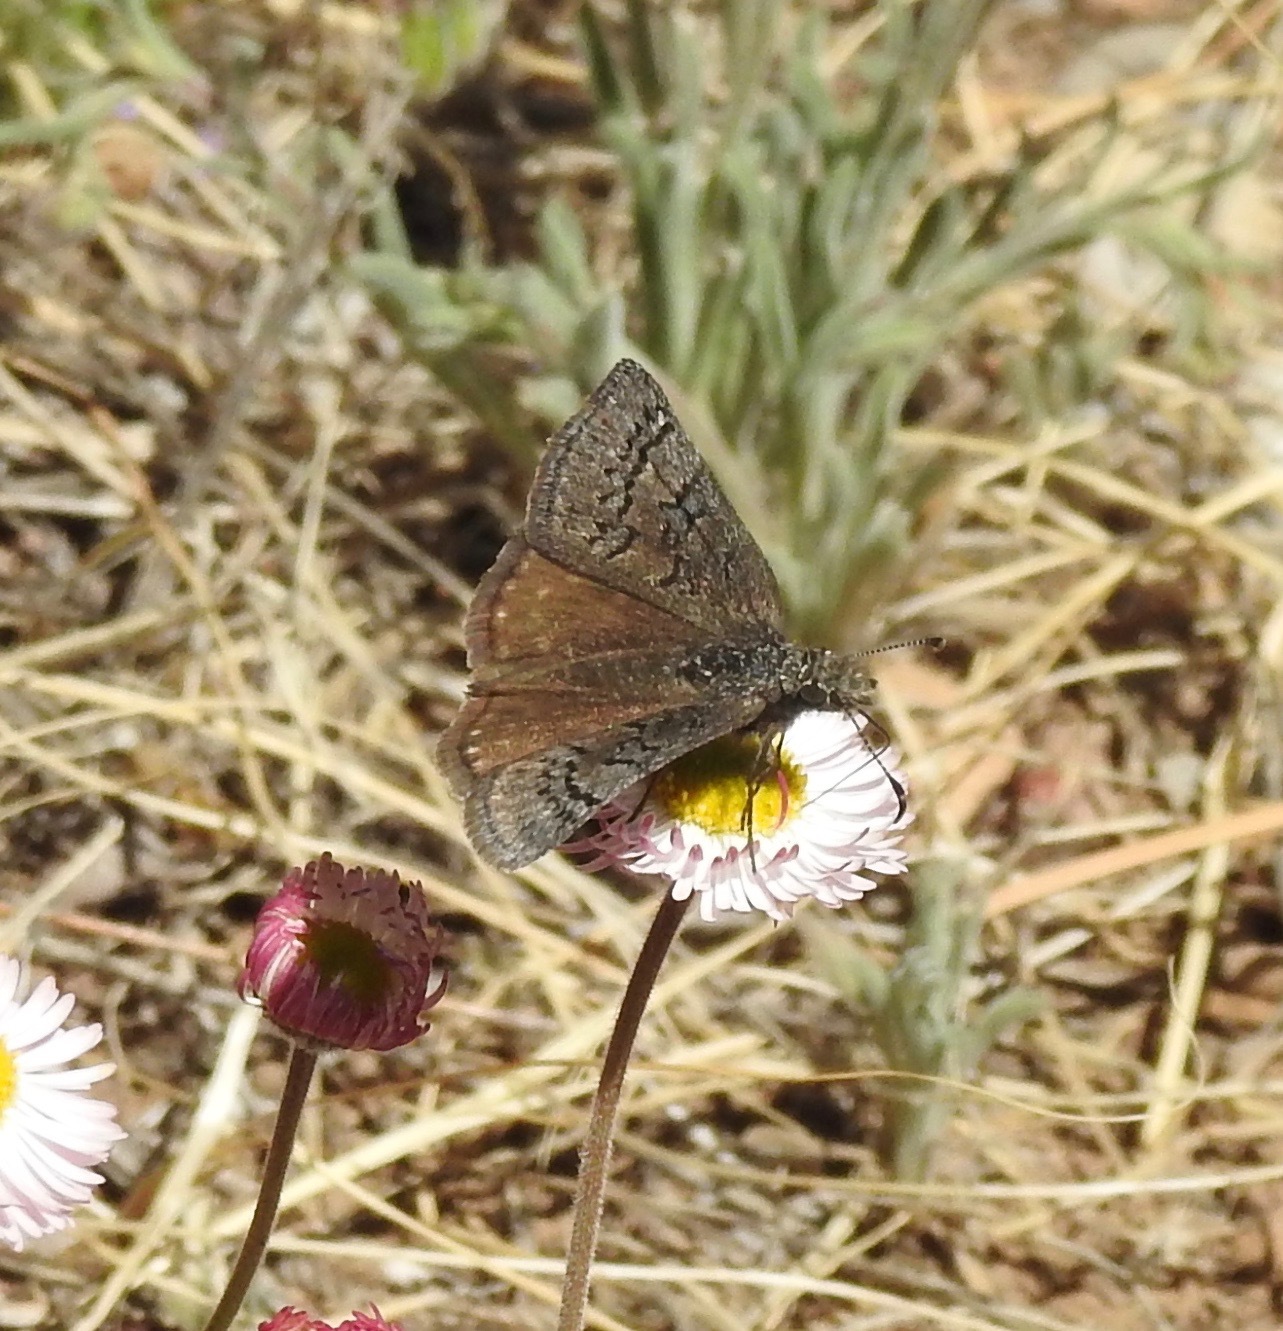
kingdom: Animalia
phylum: Arthropoda
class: Insecta
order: Lepidoptera
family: Hesperiidae
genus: Erynnis
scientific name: Erynnis brizo
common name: Sleepy duskywing
